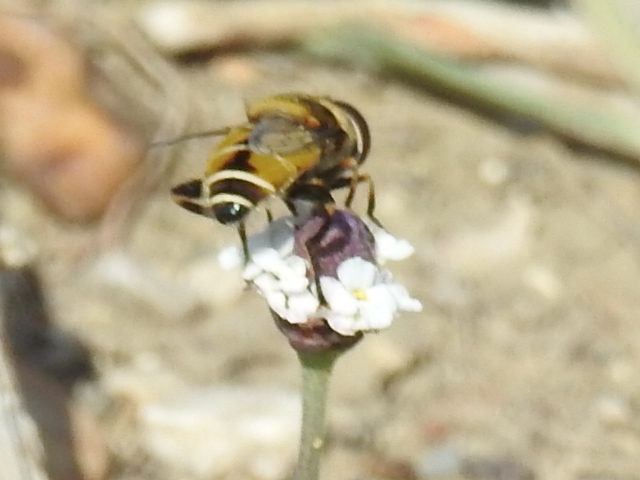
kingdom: Animalia
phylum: Arthropoda
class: Insecta
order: Diptera
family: Syrphidae
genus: Palpada
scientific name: Palpada pusilla
